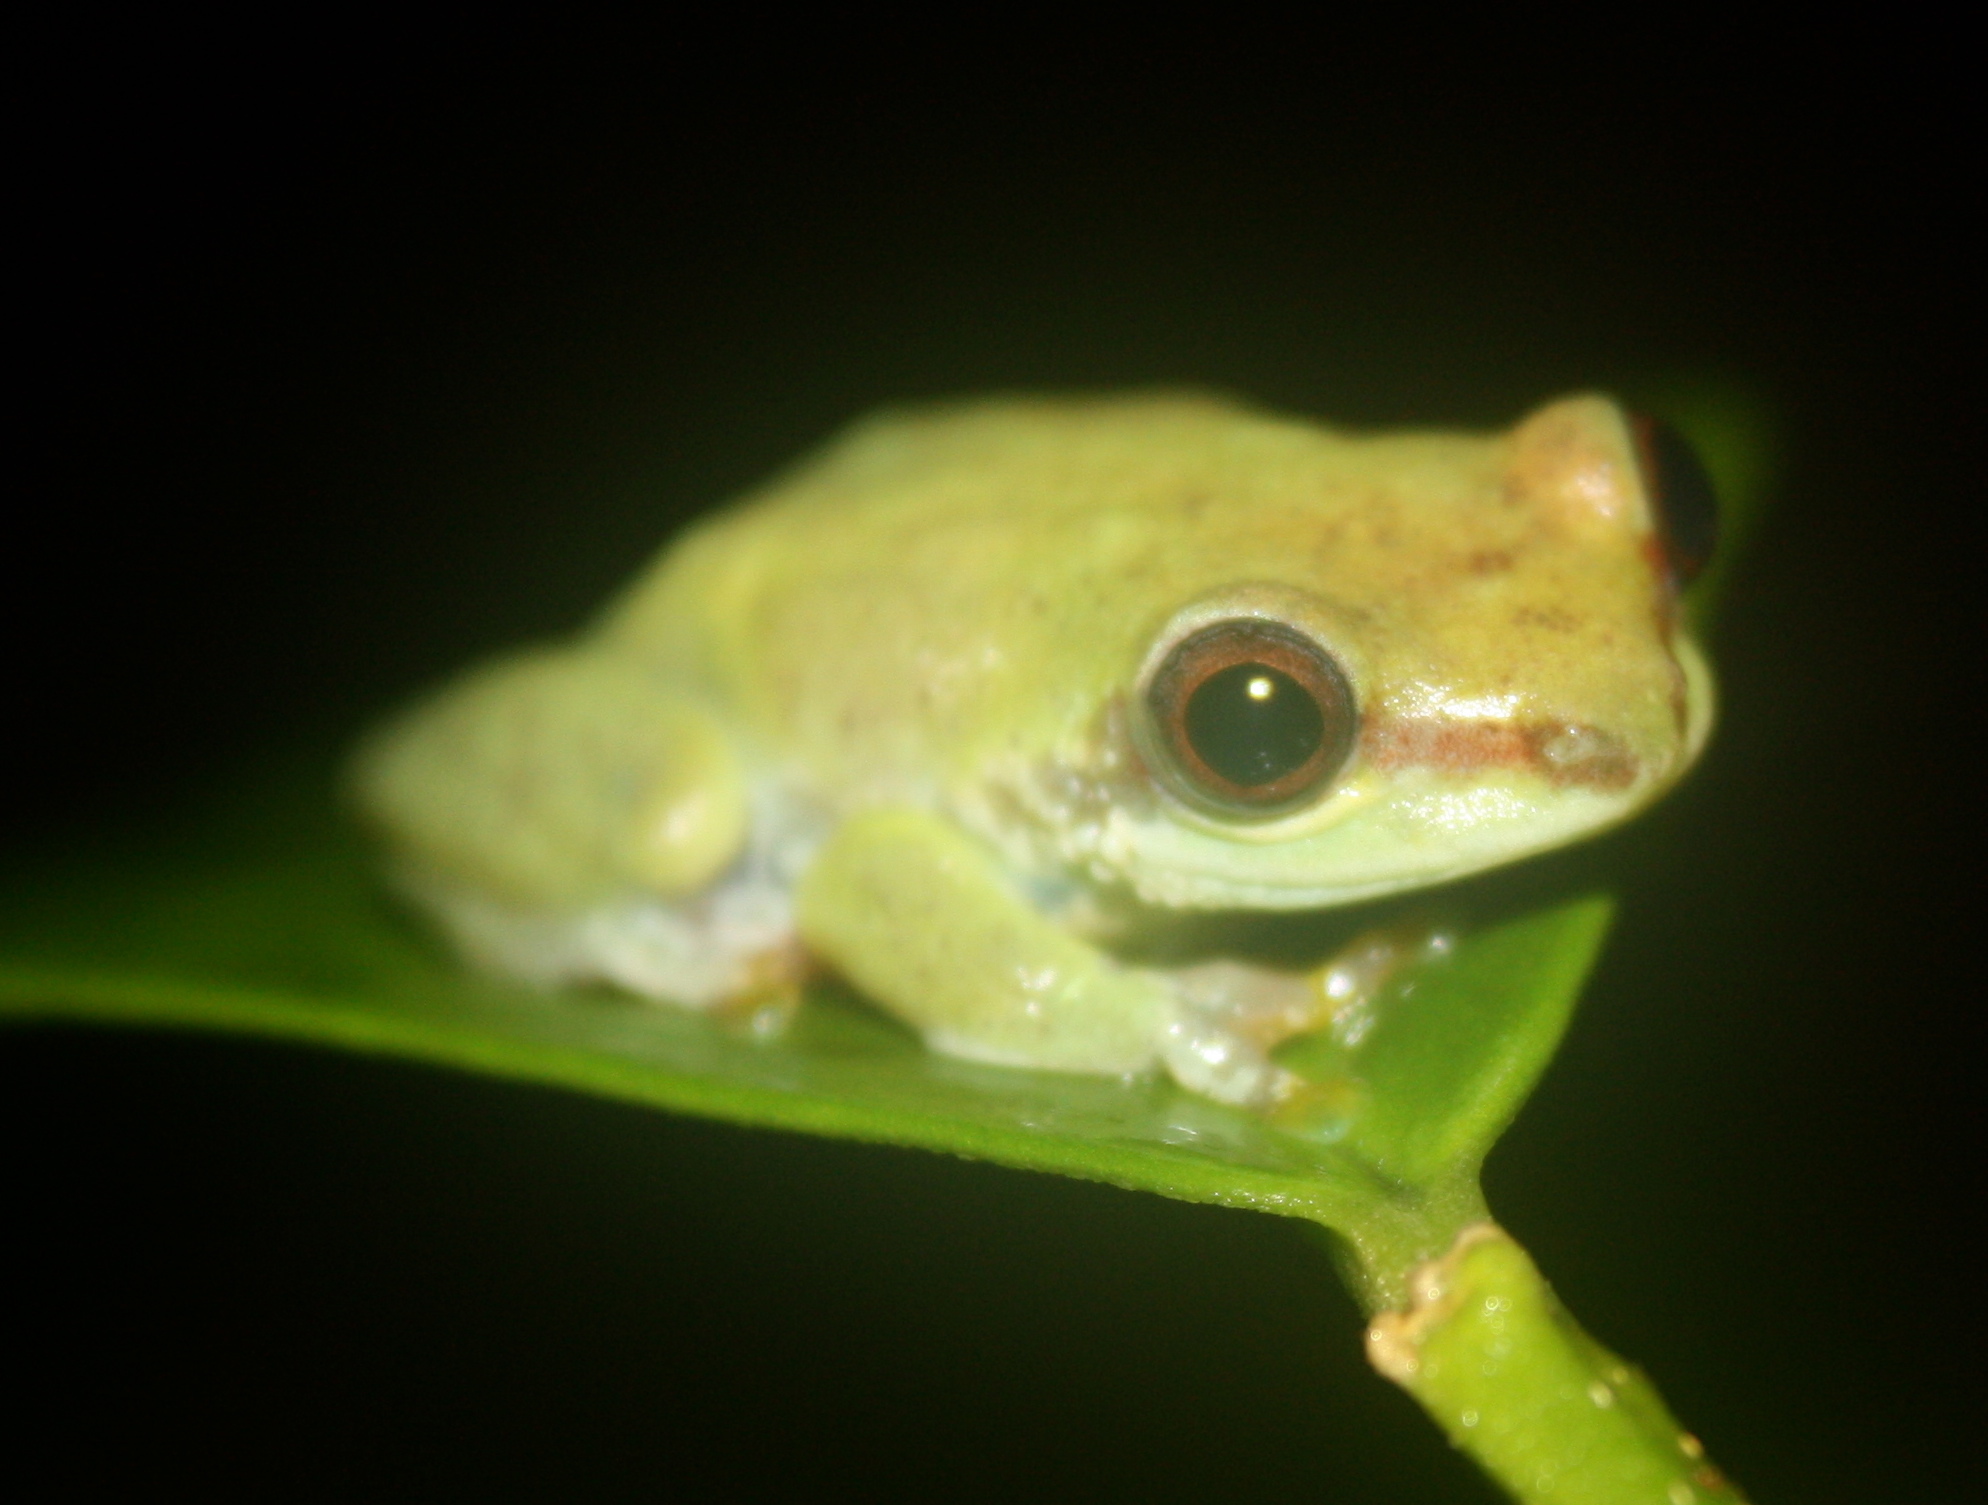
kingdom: Animalia
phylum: Chordata
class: Amphibia
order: Anura
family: Hyperoliidae
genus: Hyperolius
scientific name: Hyperolius fusciventris
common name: Lime reed frog
